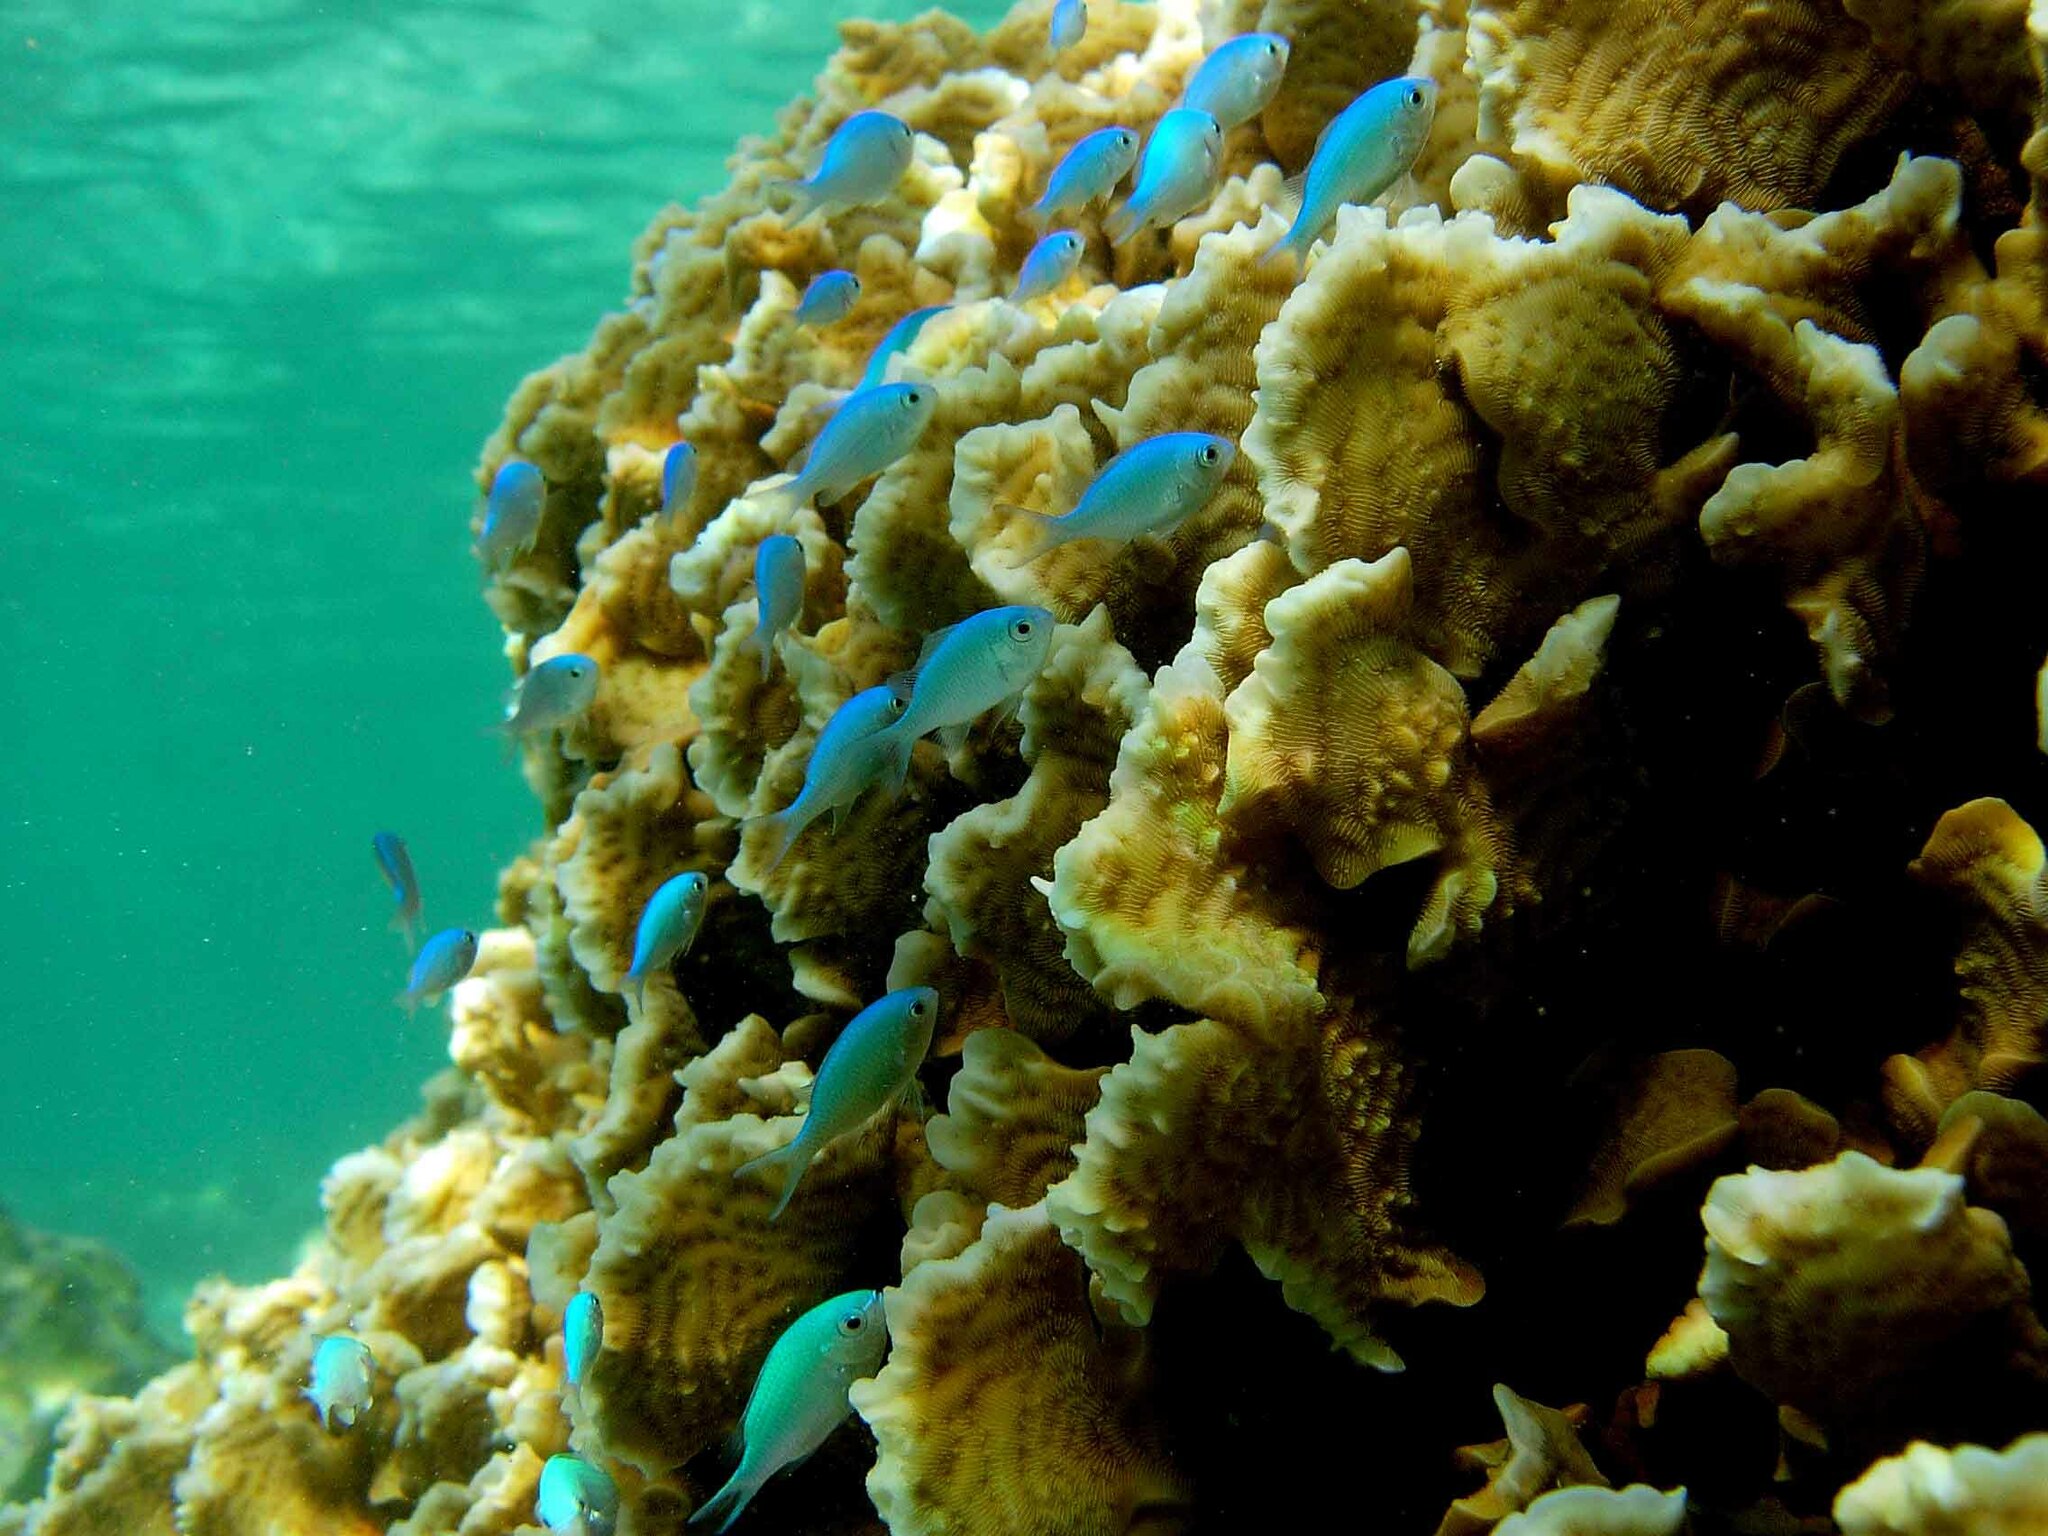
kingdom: Animalia
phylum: Chordata
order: Perciformes
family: Pomacentridae
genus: Chromis
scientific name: Chromis viridis
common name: Blue-green chromis
